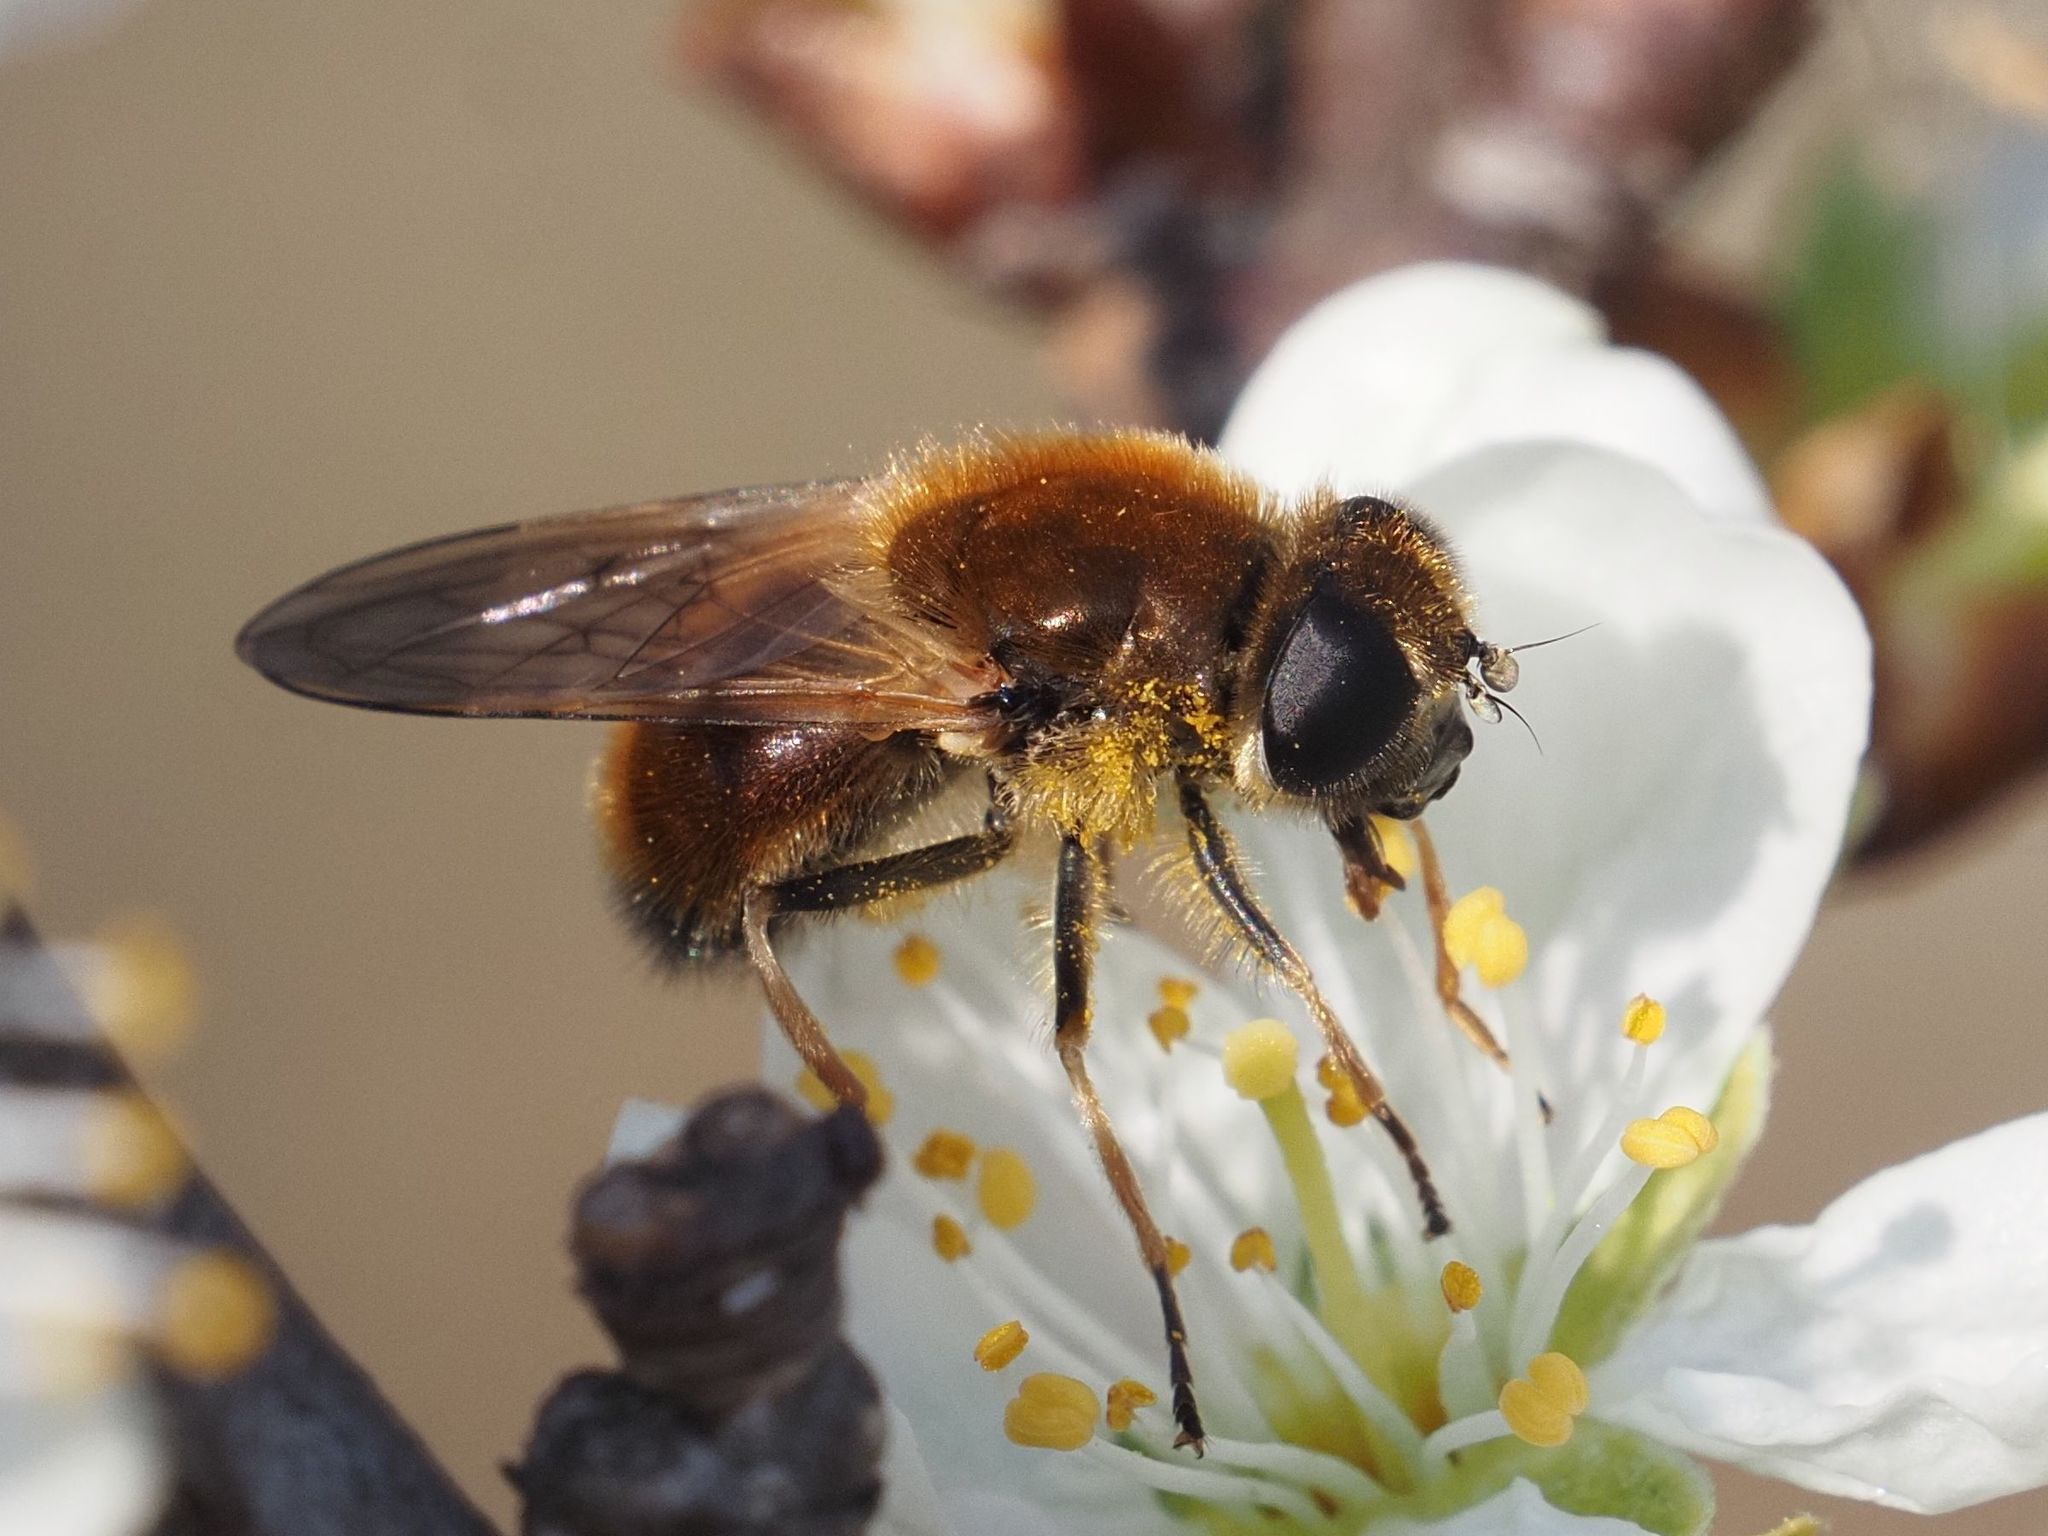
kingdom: Animalia
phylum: Arthropoda
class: Insecta
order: Diptera
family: Syrphidae
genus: Cheilosia
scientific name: Cheilosia corydon
